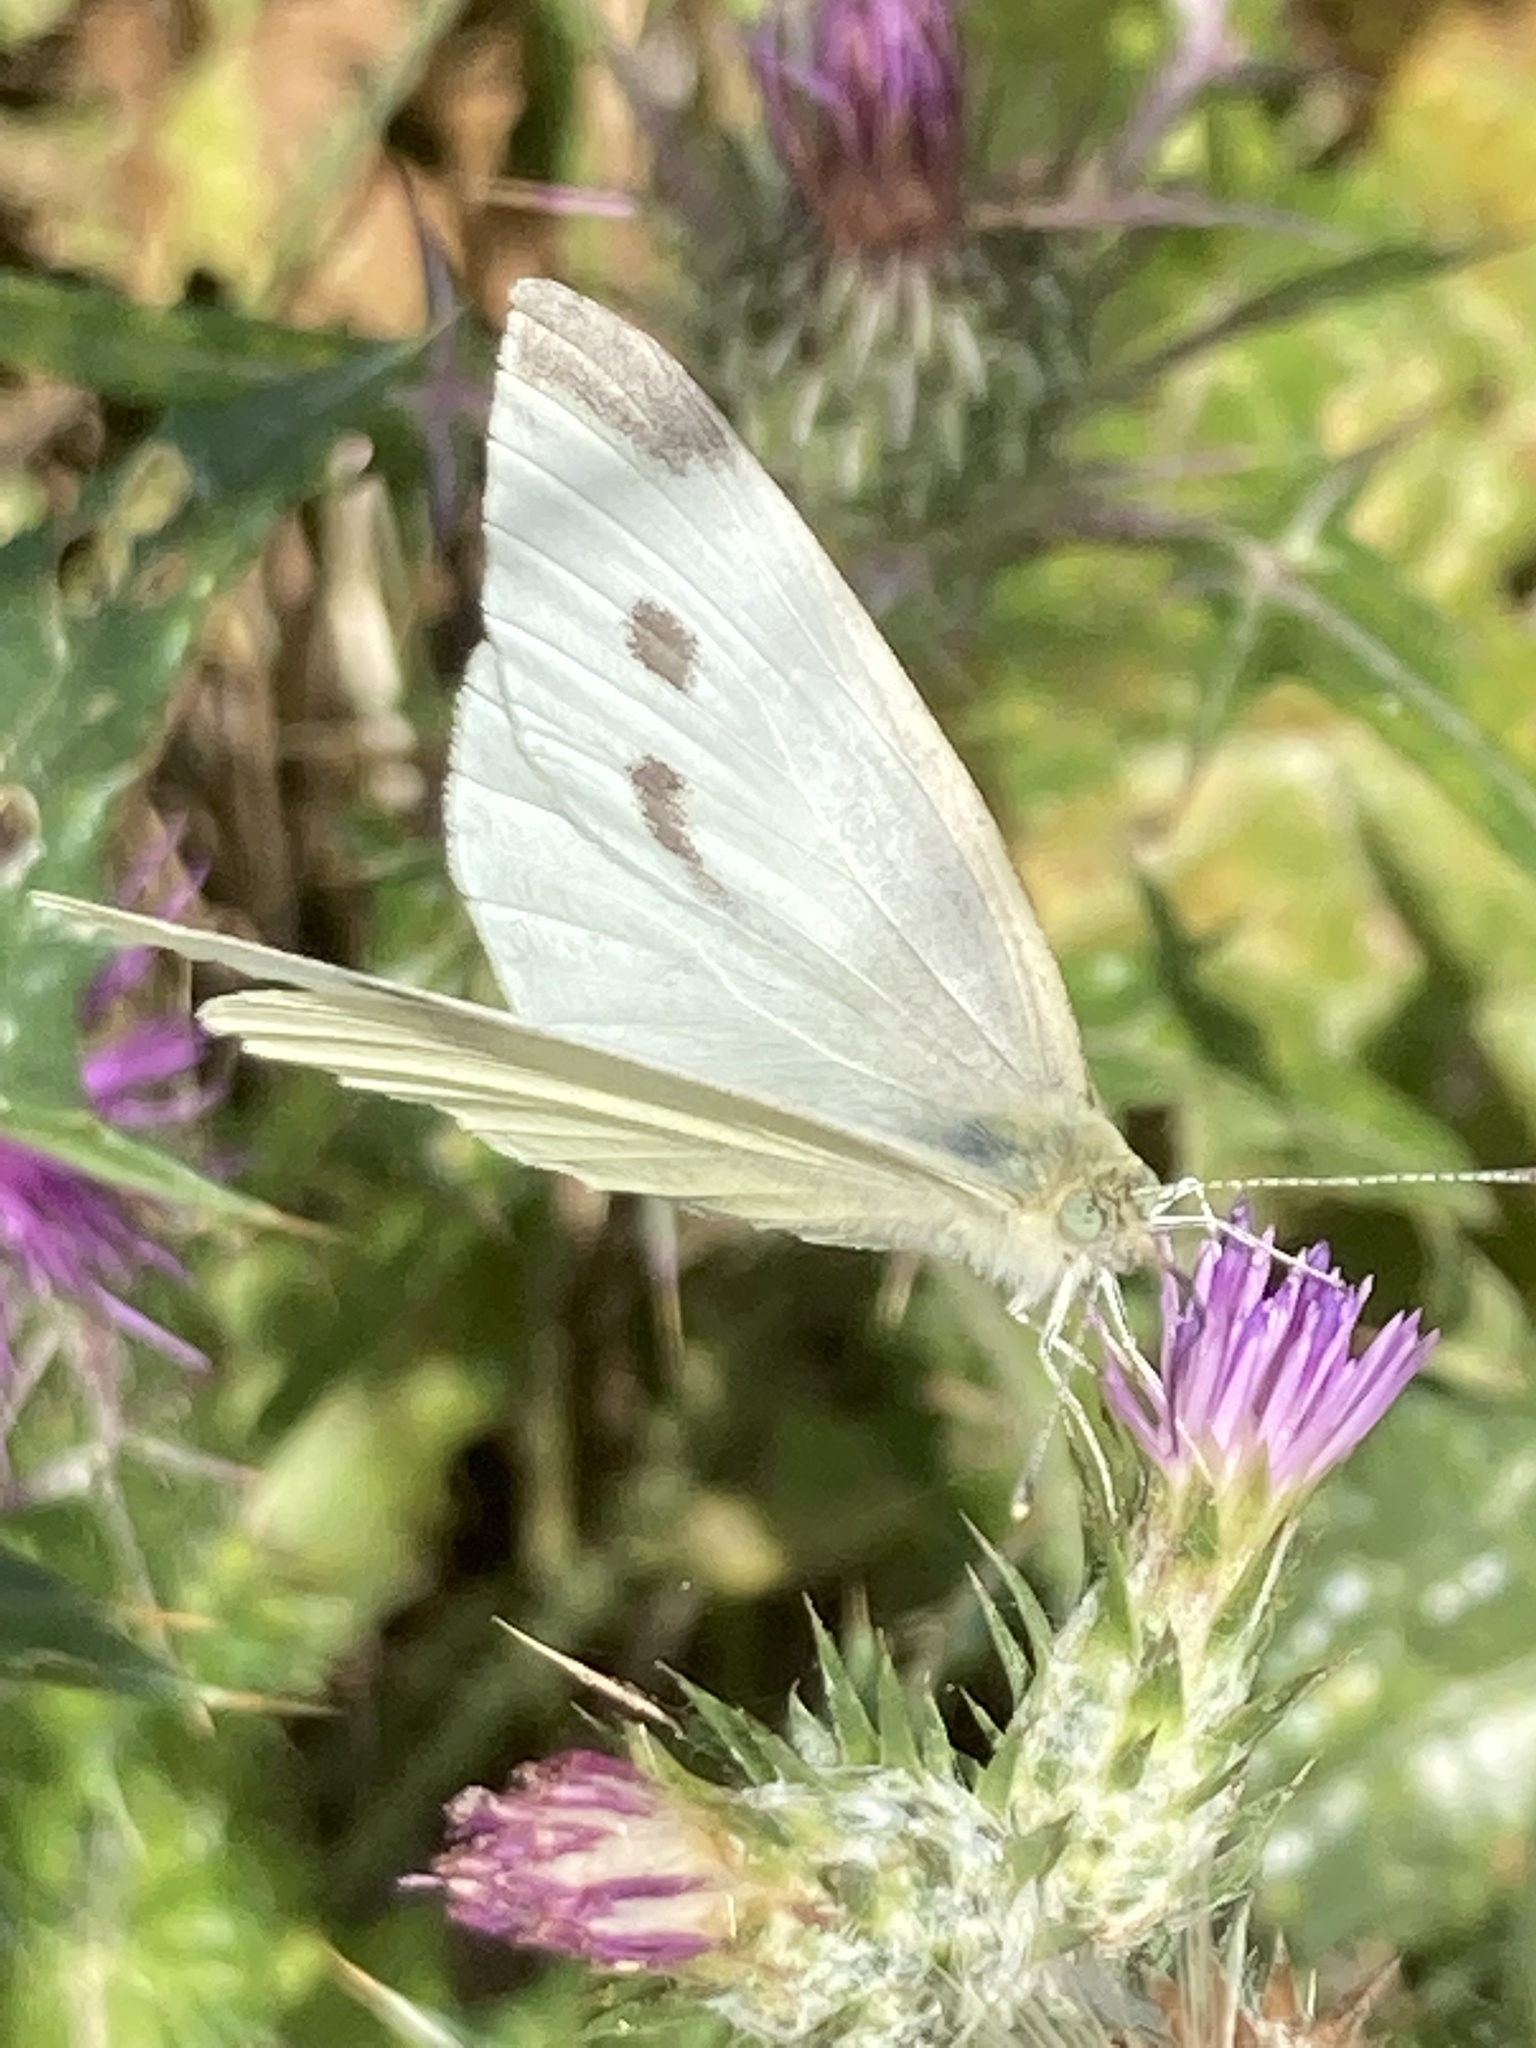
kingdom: Animalia
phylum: Arthropoda
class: Insecta
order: Lepidoptera
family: Pieridae
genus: Pieris
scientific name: Pieris rapae
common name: Small white
